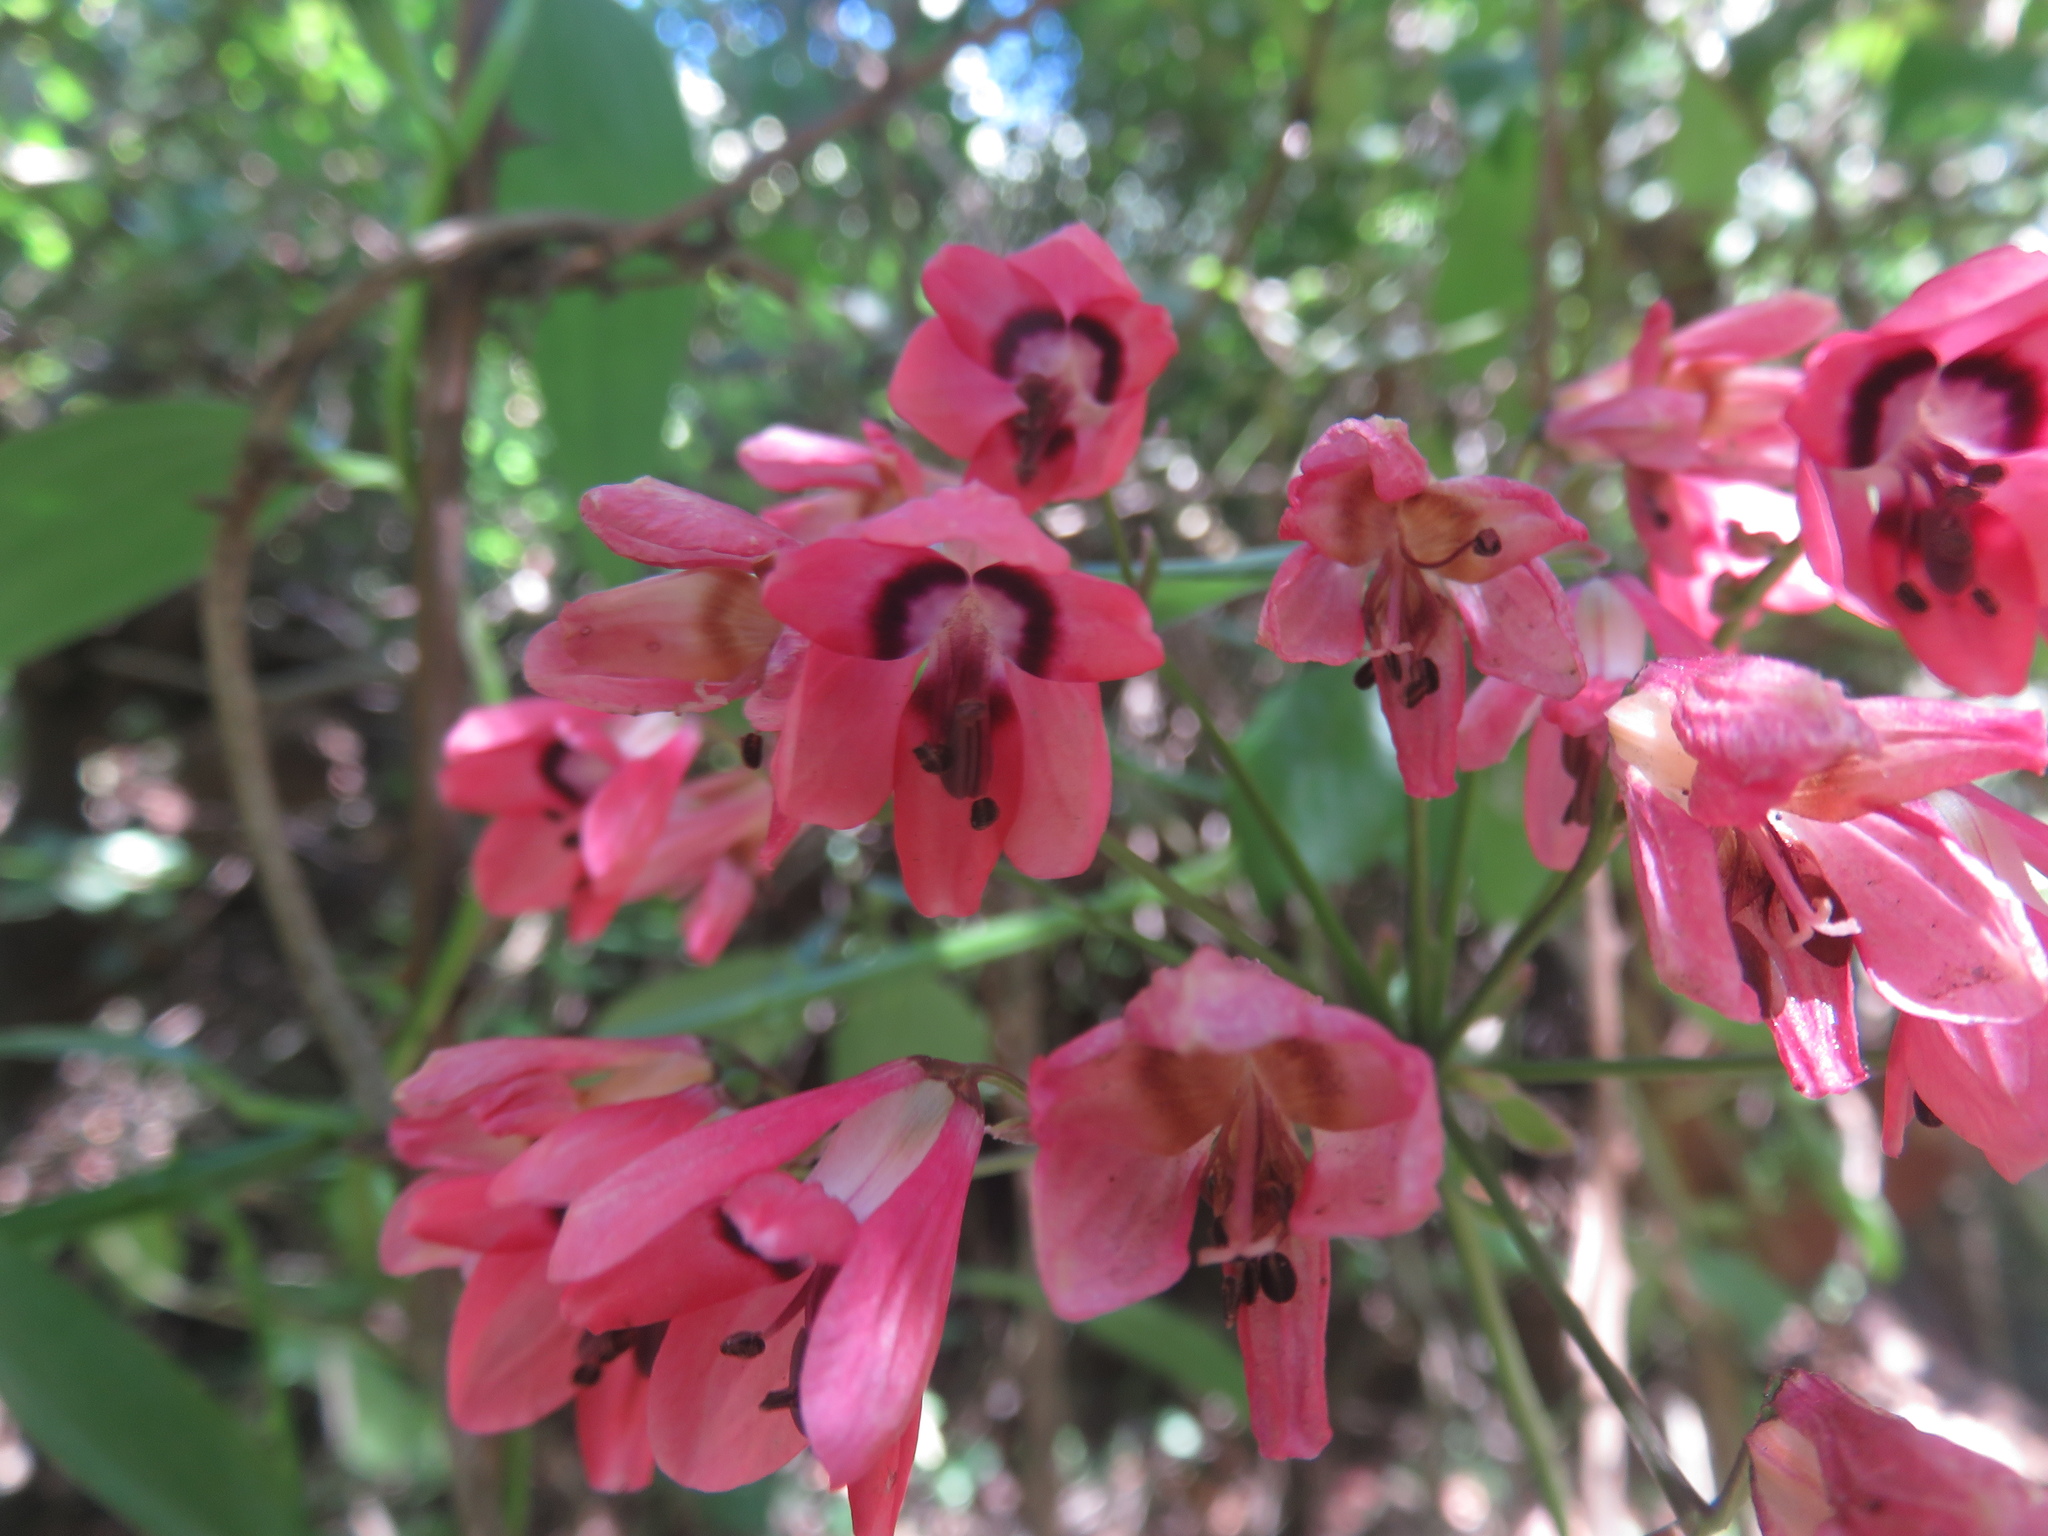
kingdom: Plantae
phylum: Tracheophyta
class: Liliopsida
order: Liliales
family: Alstroemeriaceae
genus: Bomarea
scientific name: Bomarea salsilla
